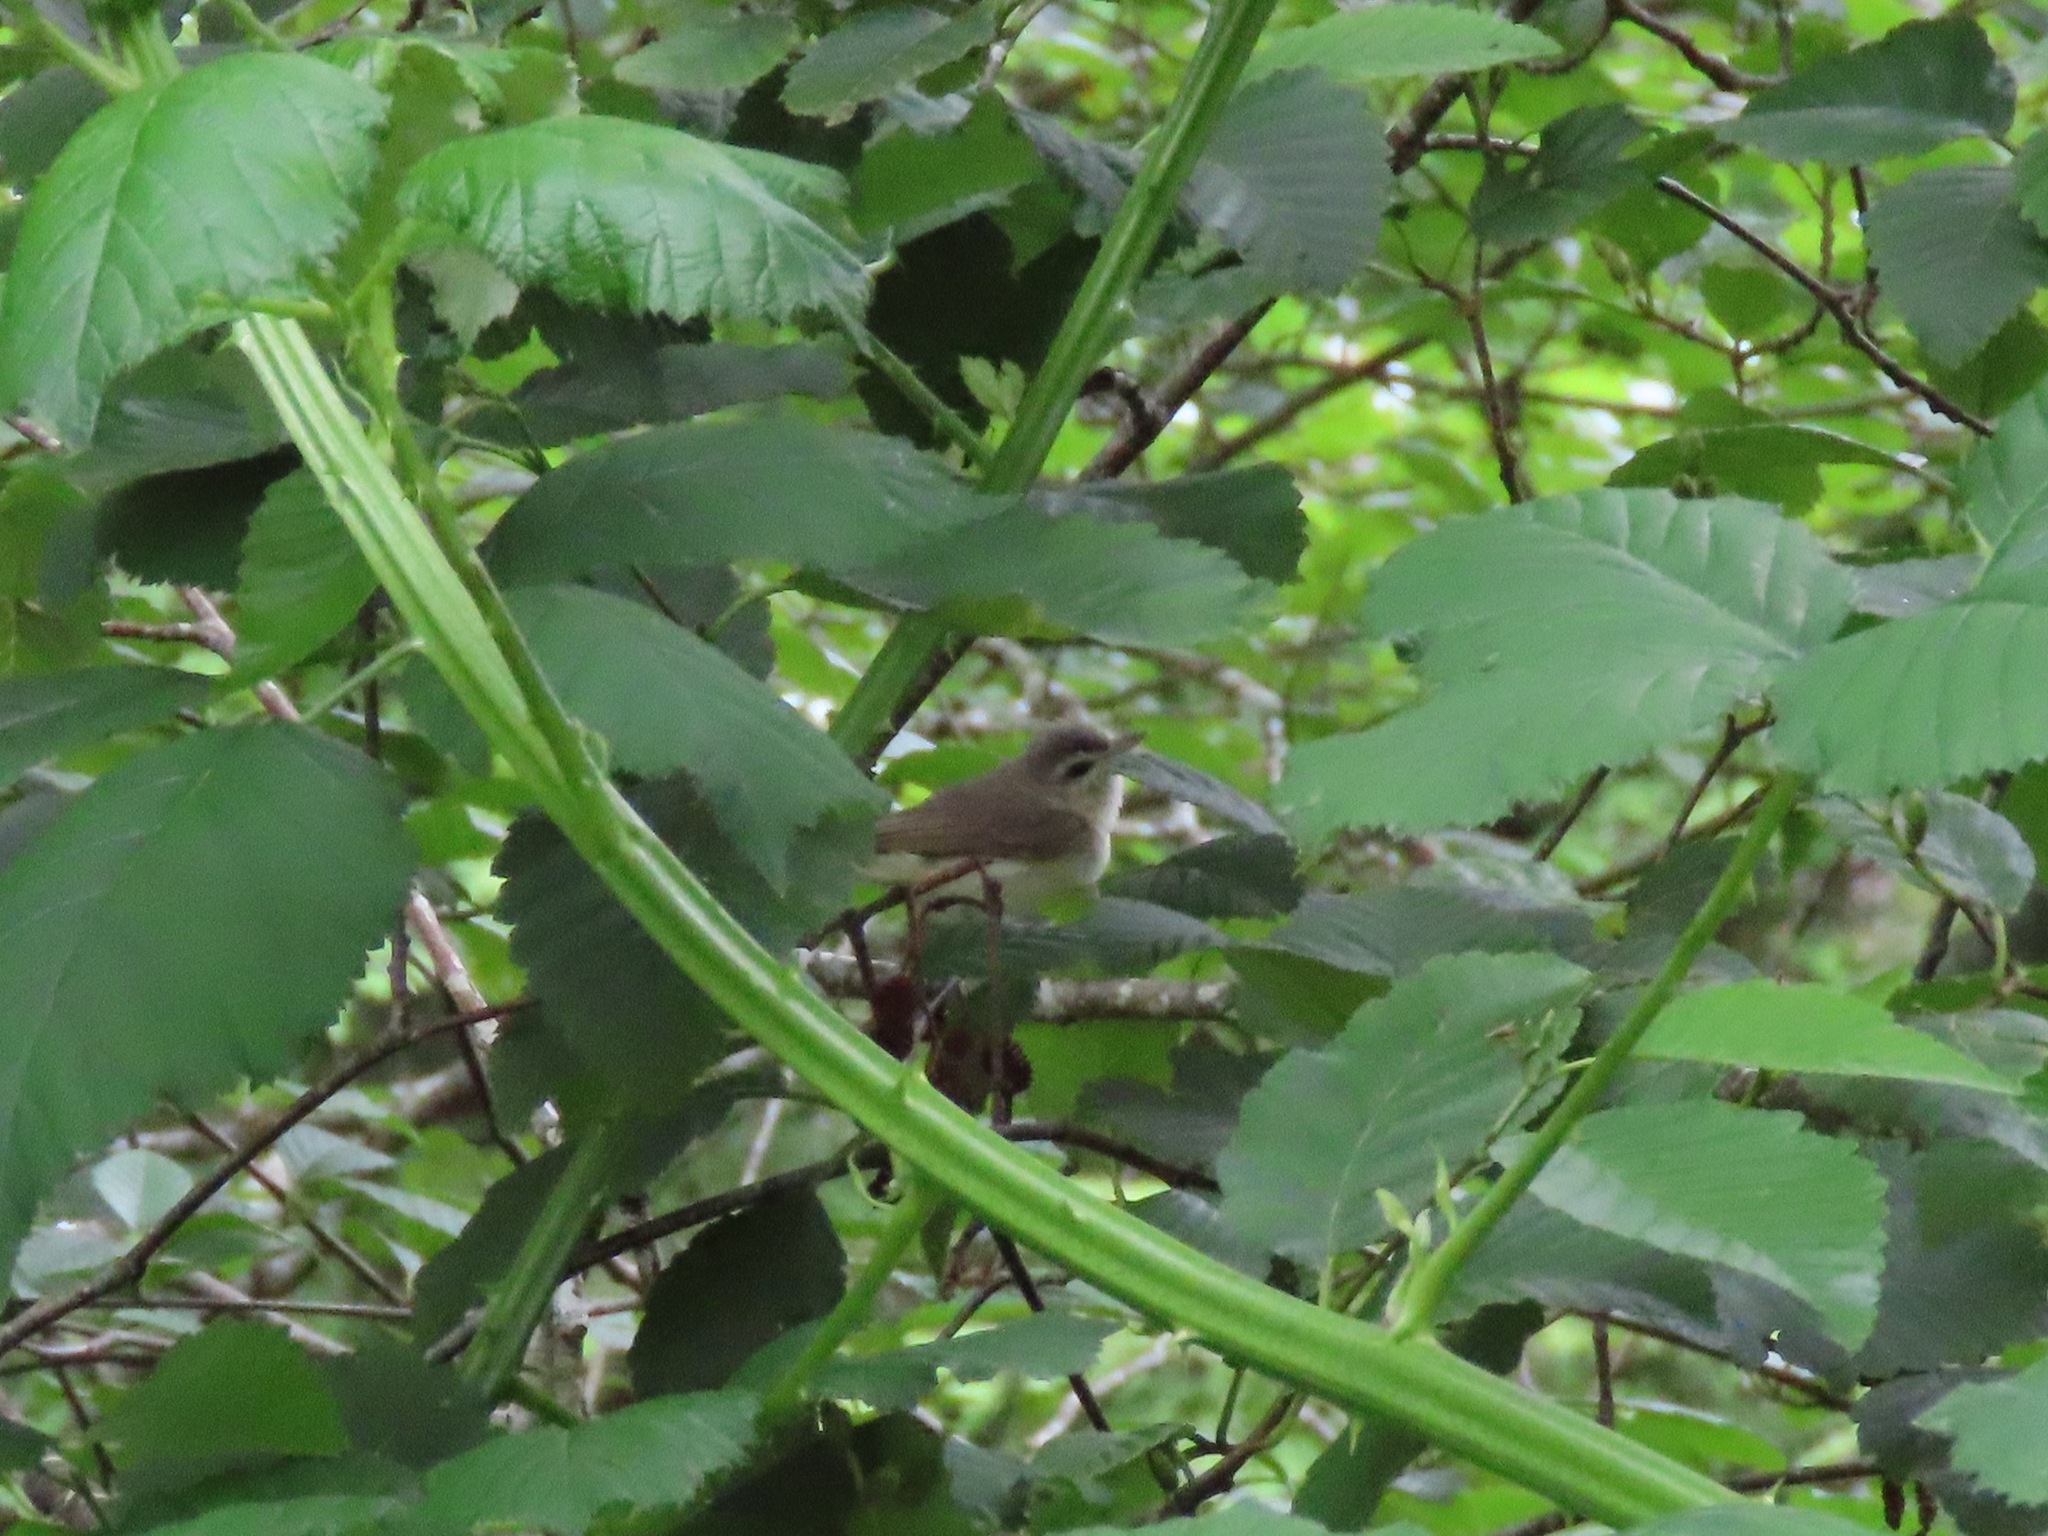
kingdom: Animalia
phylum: Chordata
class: Aves
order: Passeriformes
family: Vireonidae
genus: Vireo
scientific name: Vireo gilvus
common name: Warbling vireo
